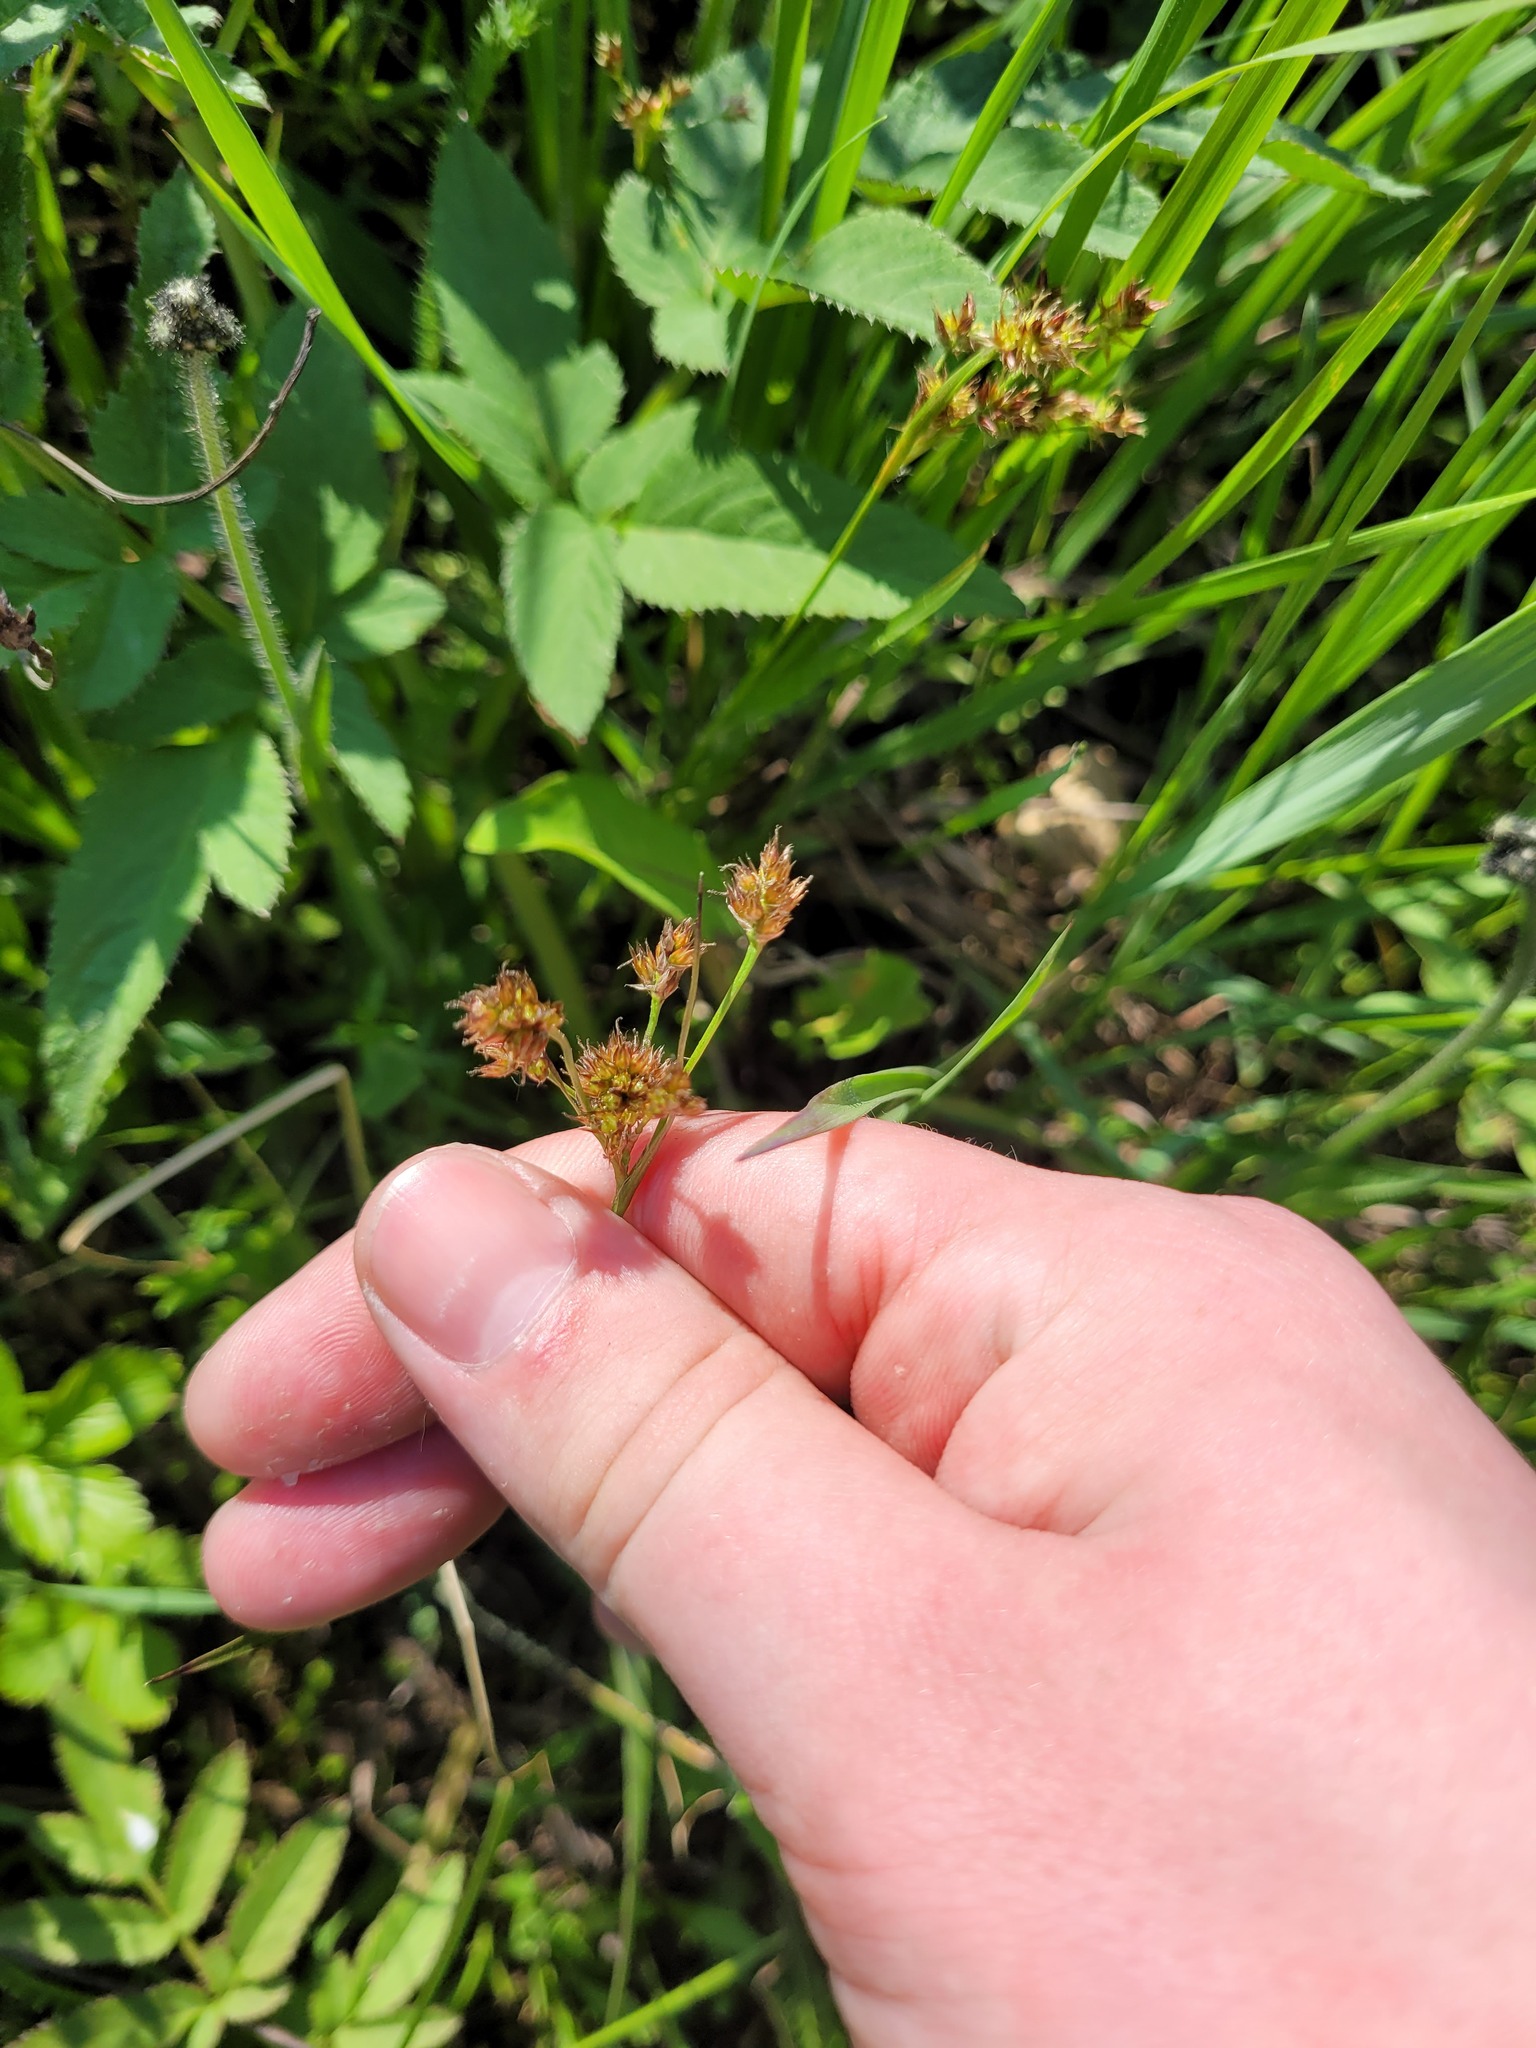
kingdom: Plantae
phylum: Tracheophyta
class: Liliopsida
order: Poales
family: Juncaceae
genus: Luzula
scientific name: Luzula pallescens
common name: Fen wood-rush
